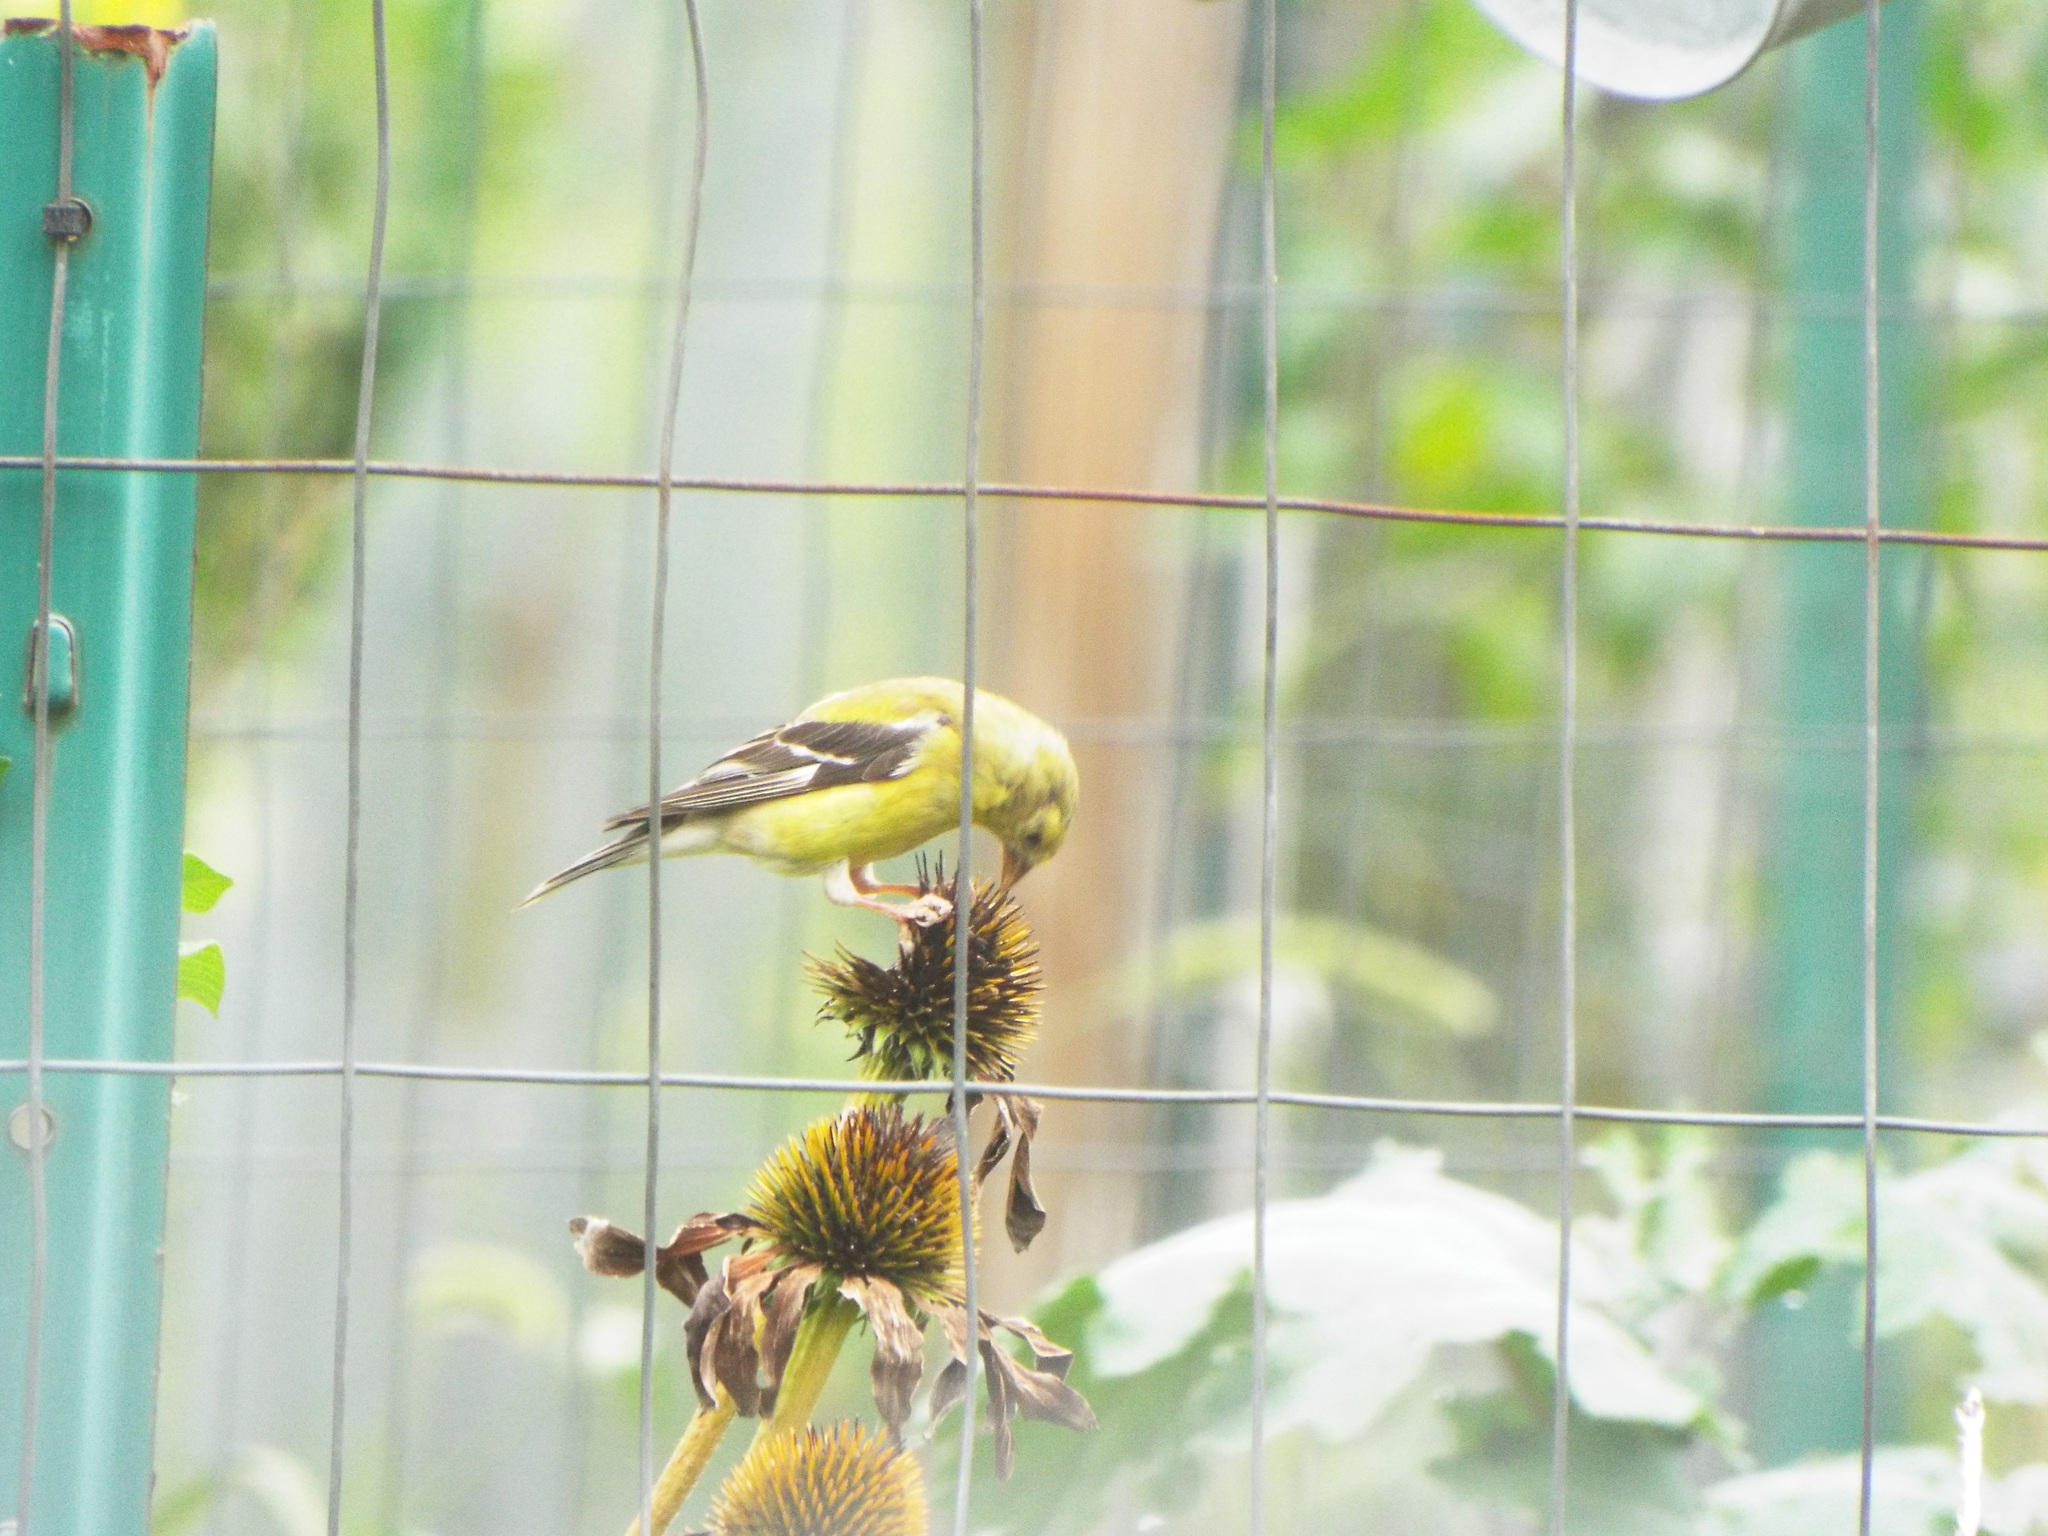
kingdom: Animalia
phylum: Chordata
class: Aves
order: Passeriformes
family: Fringillidae
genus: Spinus
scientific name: Spinus tristis
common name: American goldfinch
